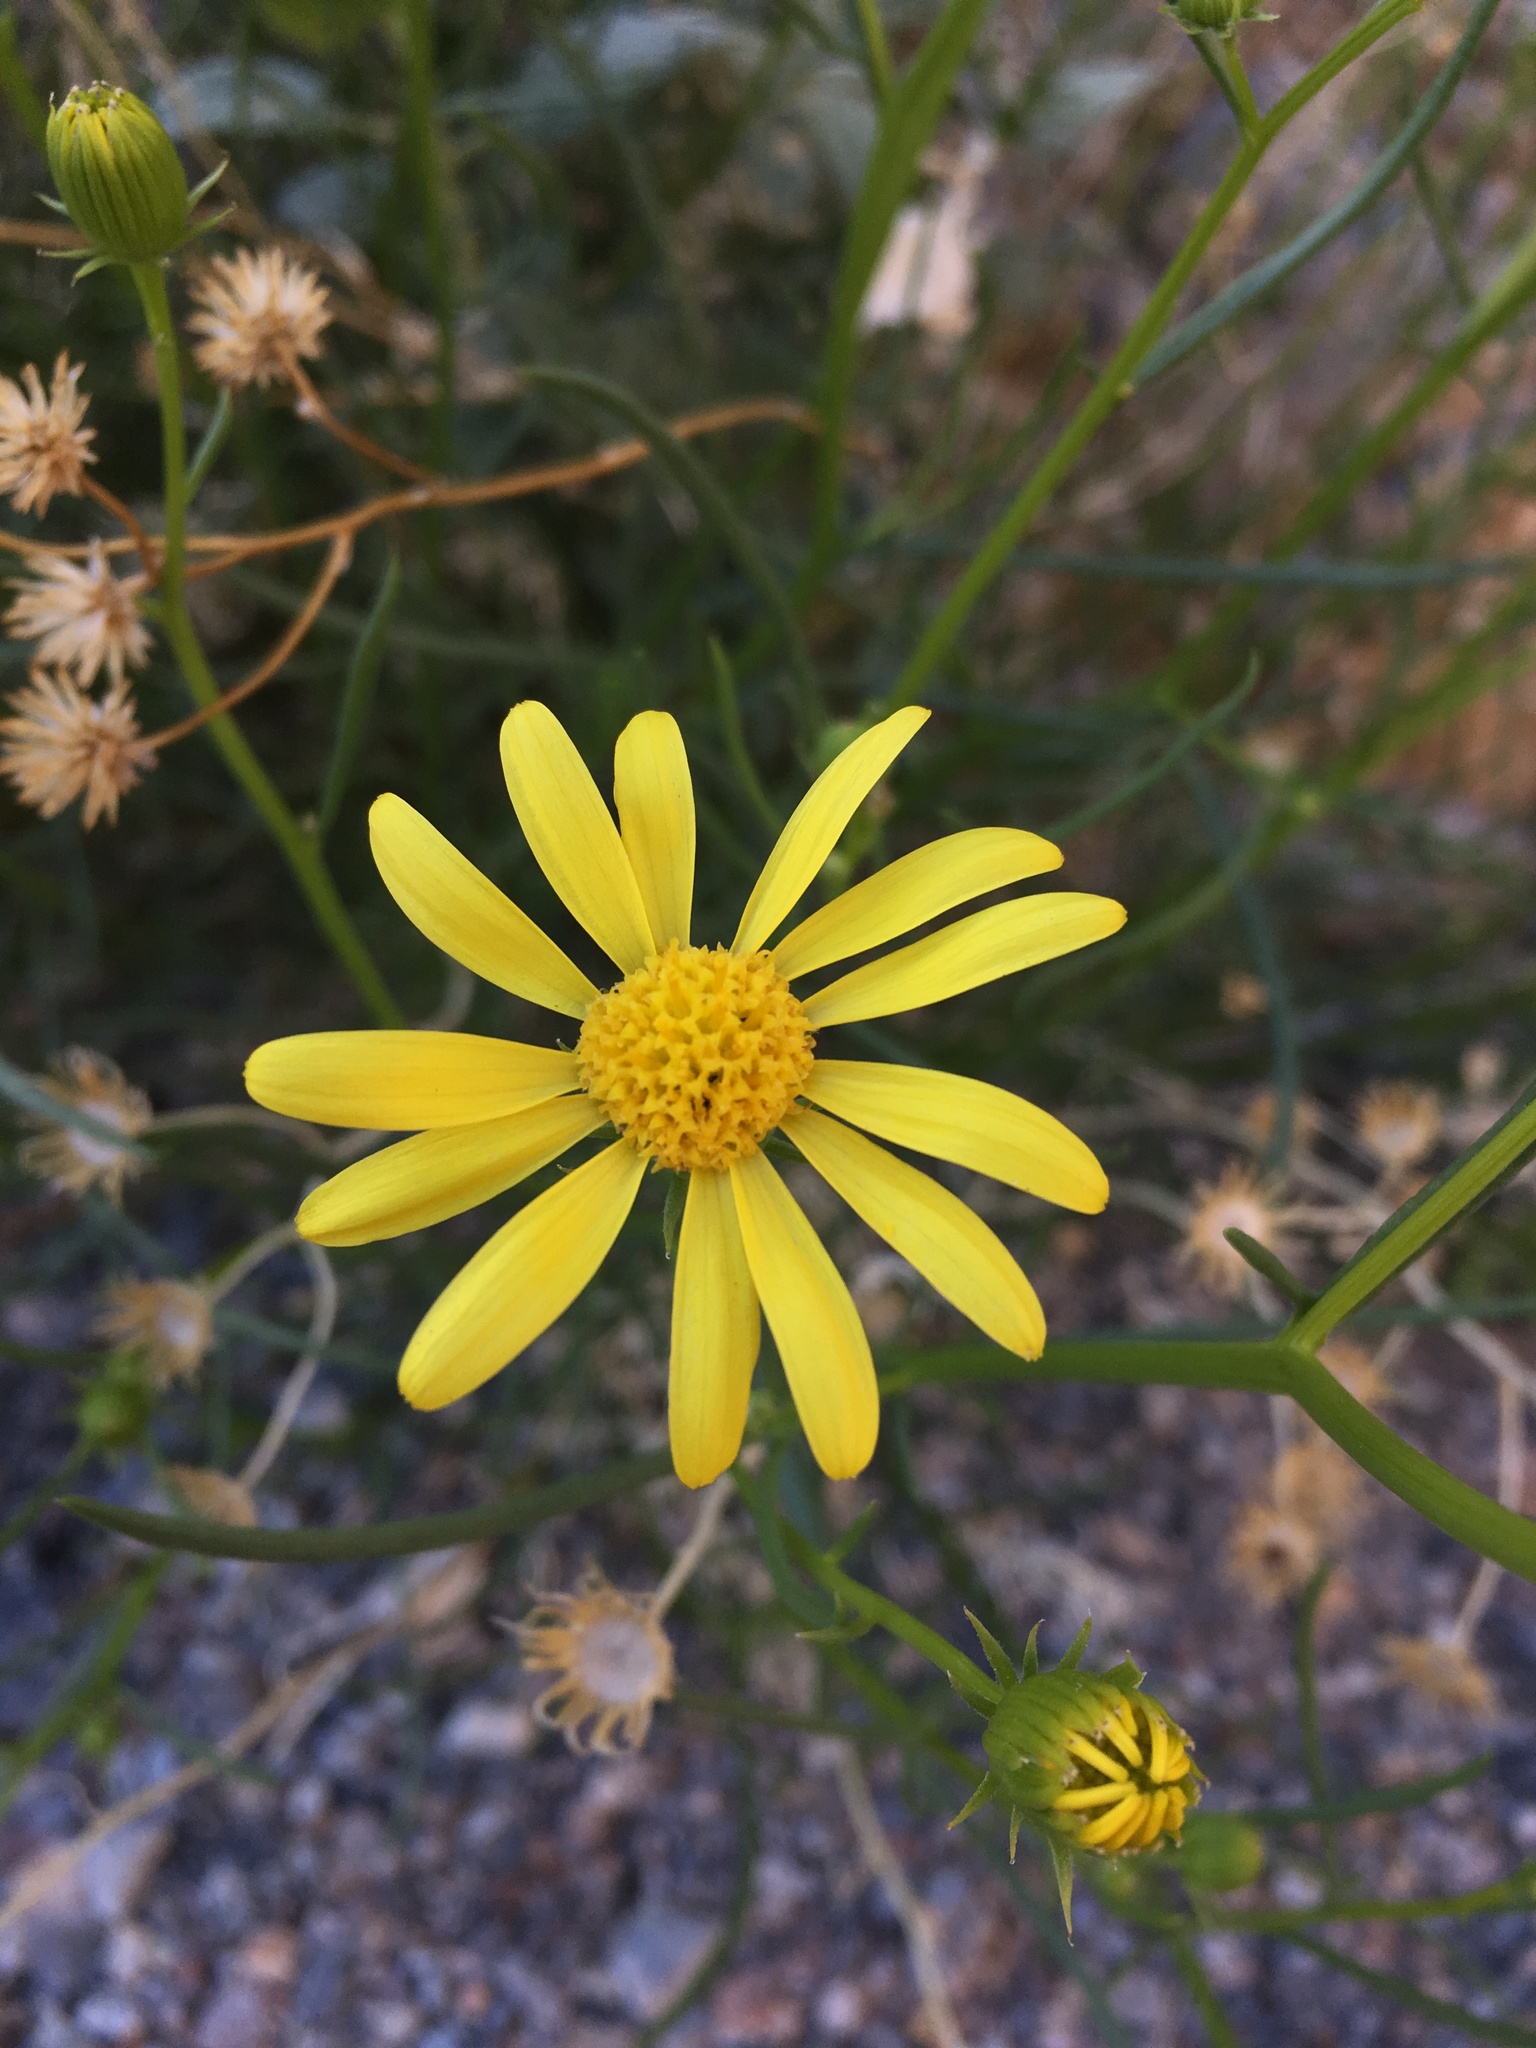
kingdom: Plantae
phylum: Tracheophyta
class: Magnoliopsida
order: Asterales
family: Asteraceae
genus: Senecio
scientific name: Senecio flaccidus
